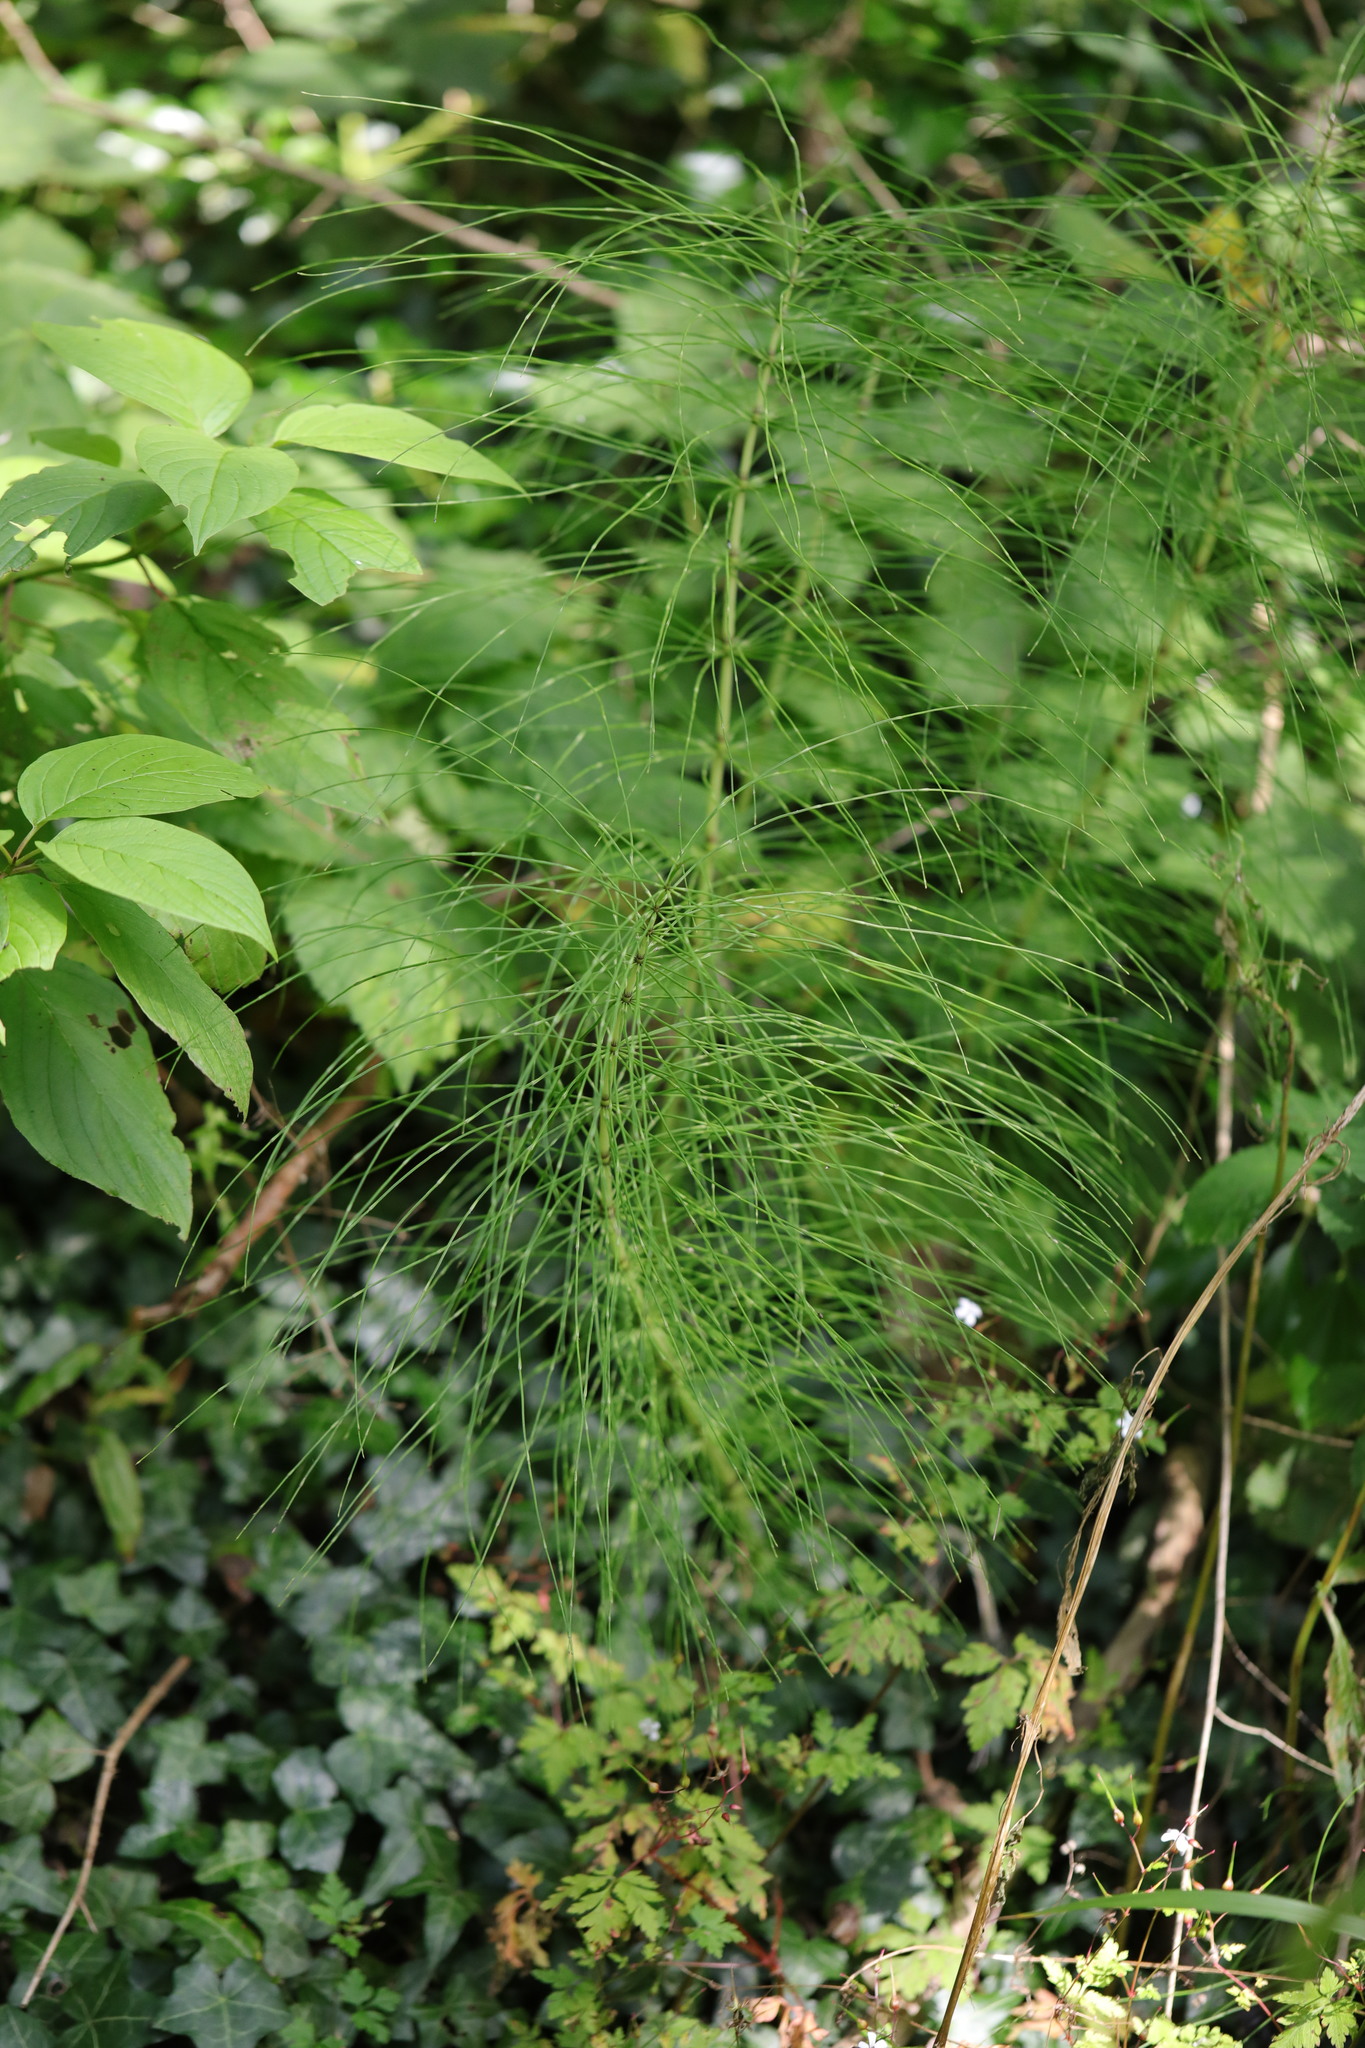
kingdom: Plantae
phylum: Tracheophyta
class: Polypodiopsida
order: Equisetales
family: Equisetaceae
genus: Equisetum
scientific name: Equisetum telmateia
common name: Great horsetail
